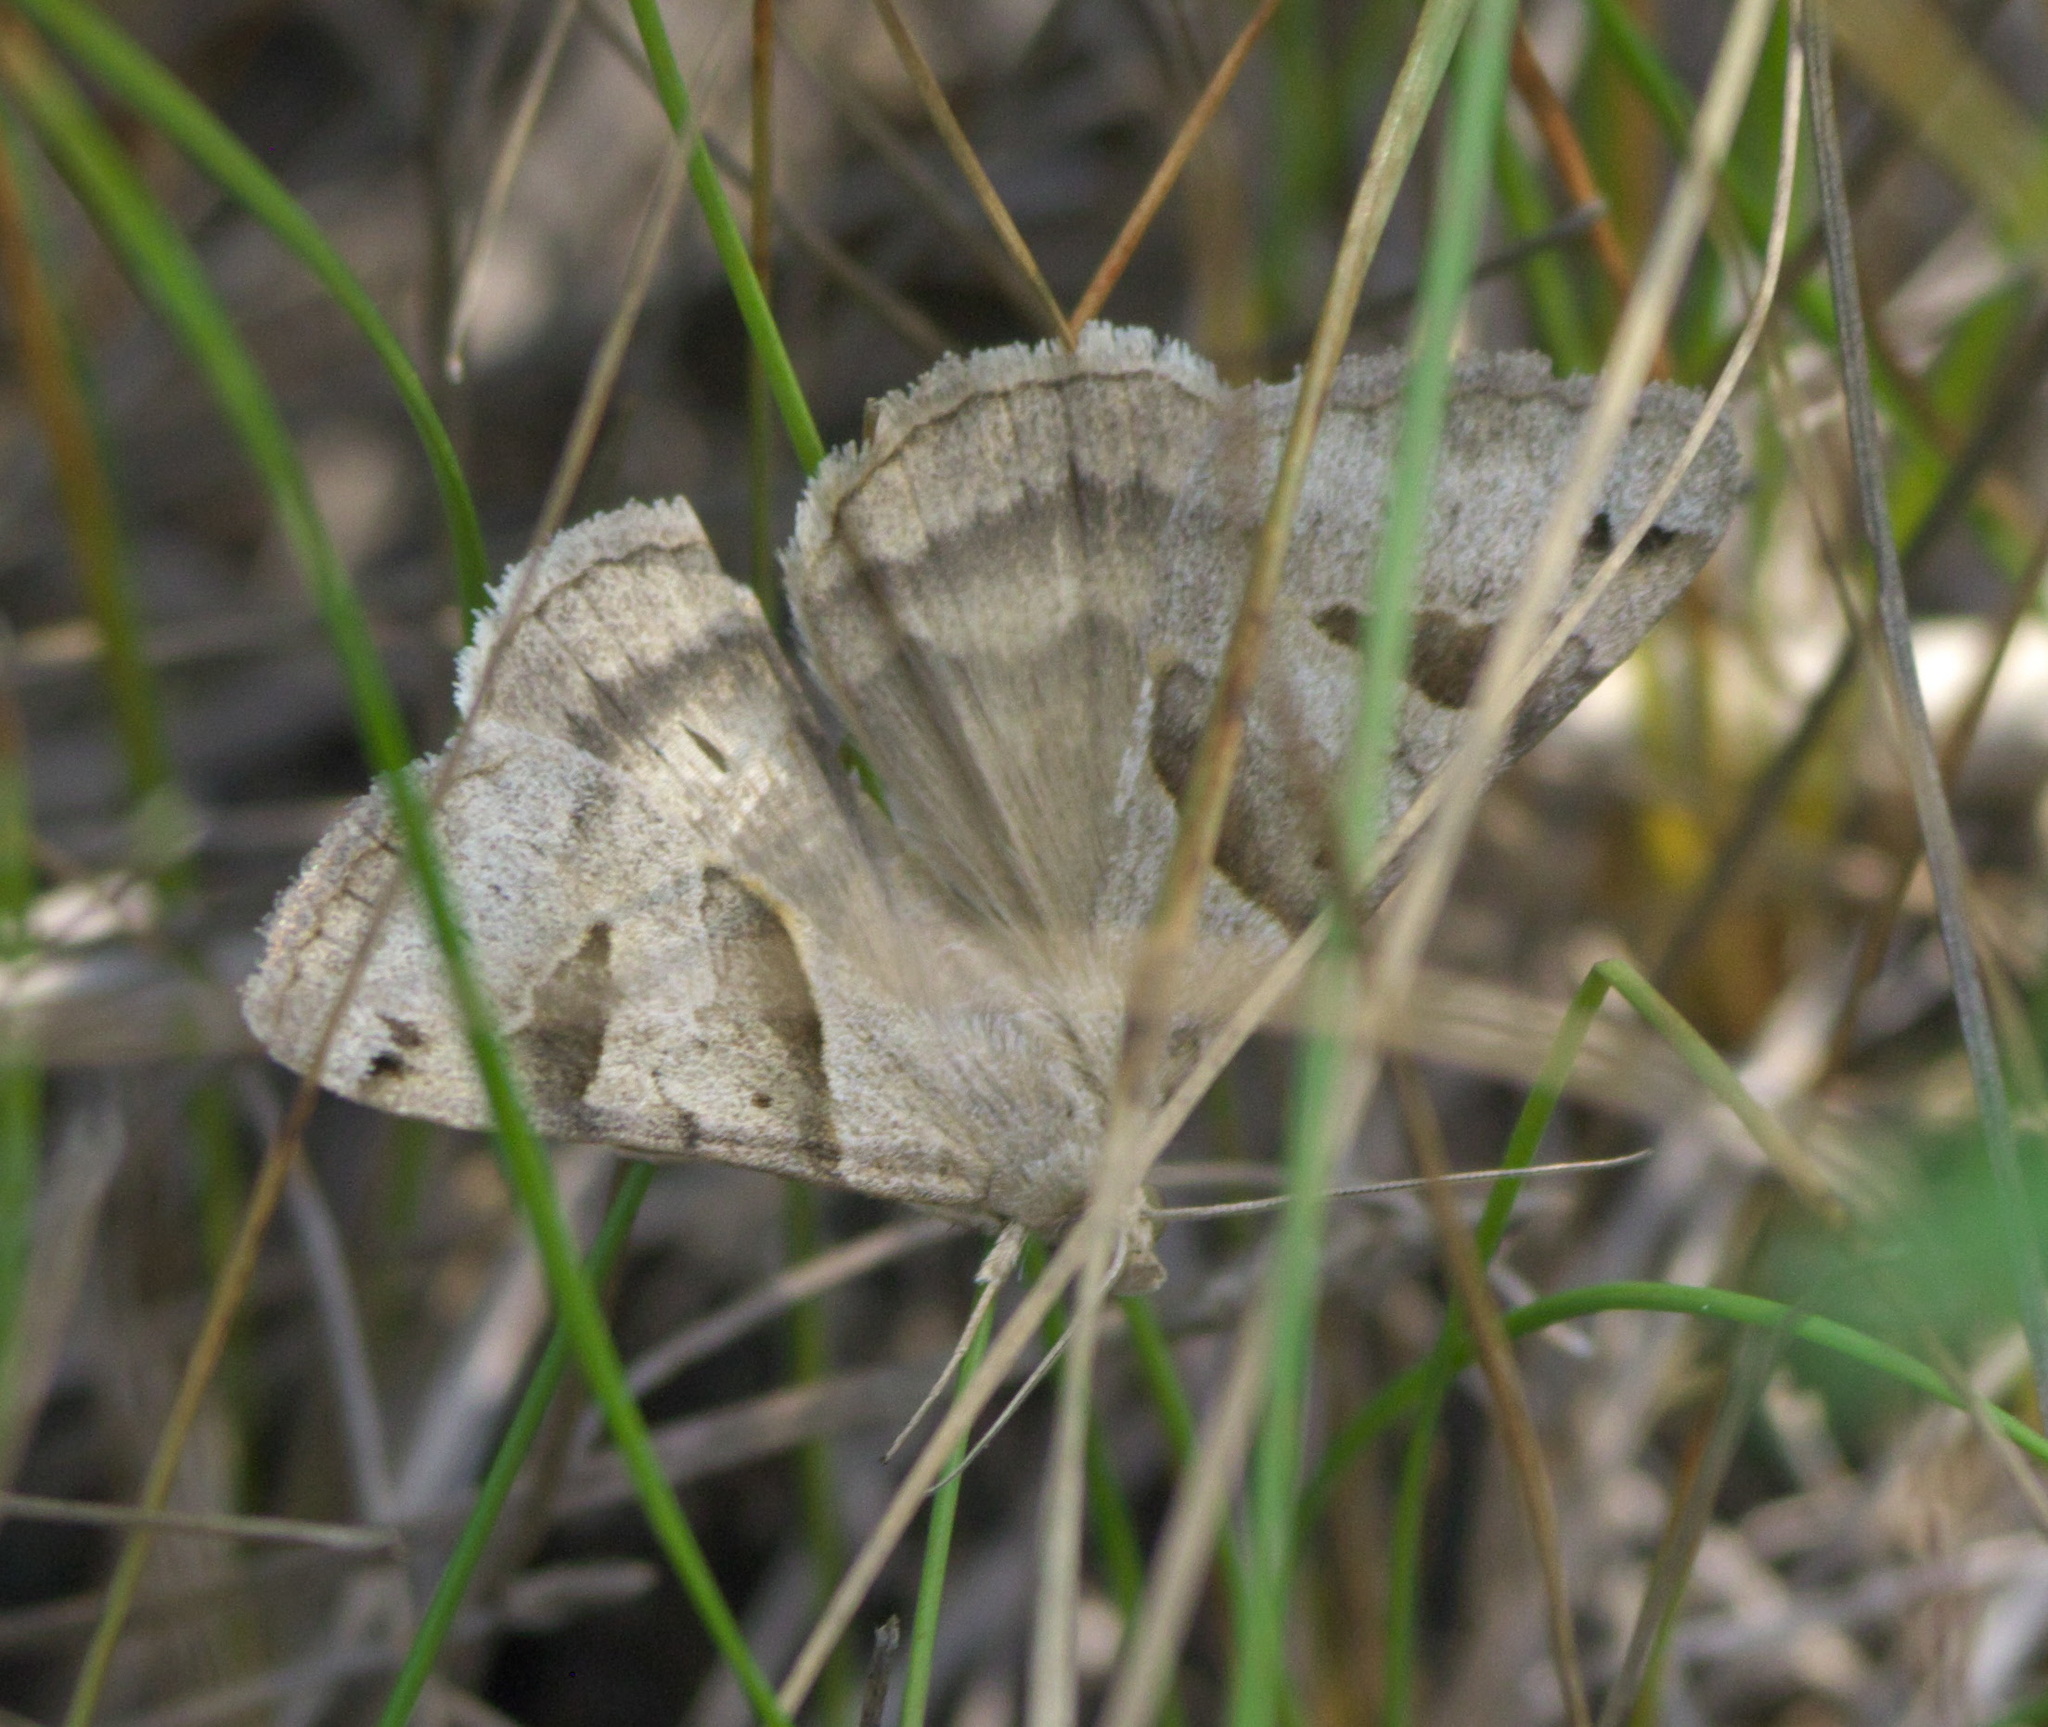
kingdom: Animalia
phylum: Arthropoda
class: Insecta
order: Lepidoptera
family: Erebidae
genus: Caenurgina
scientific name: Caenurgina erechtea
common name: Forage looper moth
